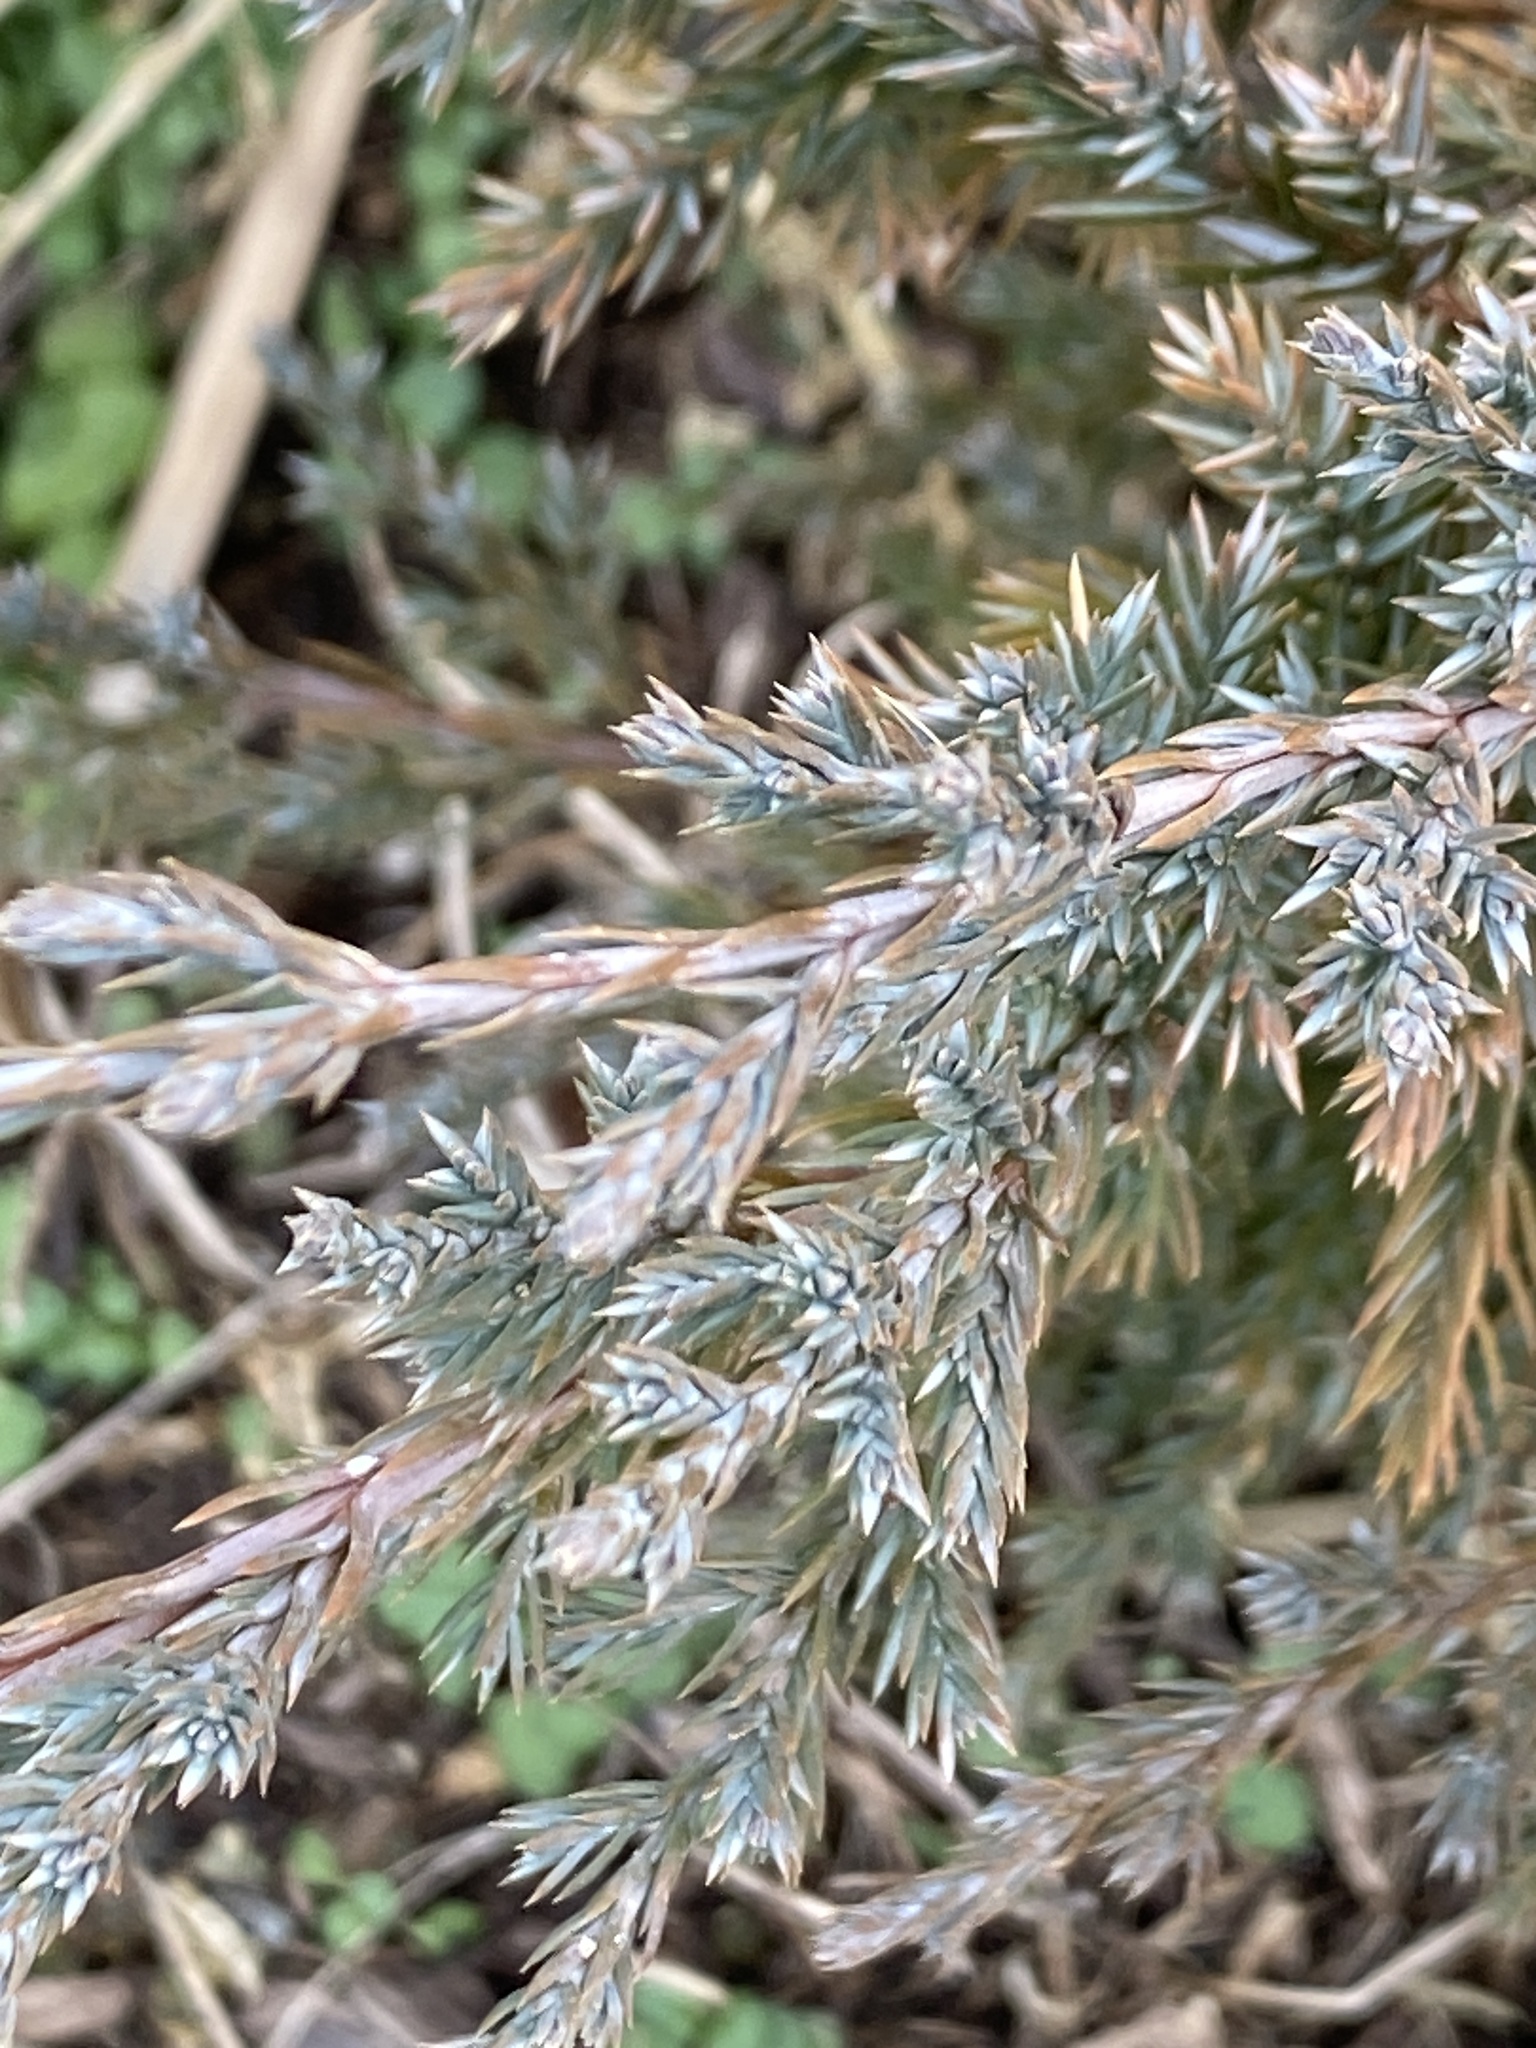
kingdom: Plantae
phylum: Tracheophyta
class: Pinopsida
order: Pinales
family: Cupressaceae
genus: Juniperus
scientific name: Juniperus virginiana
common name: Red juniper
